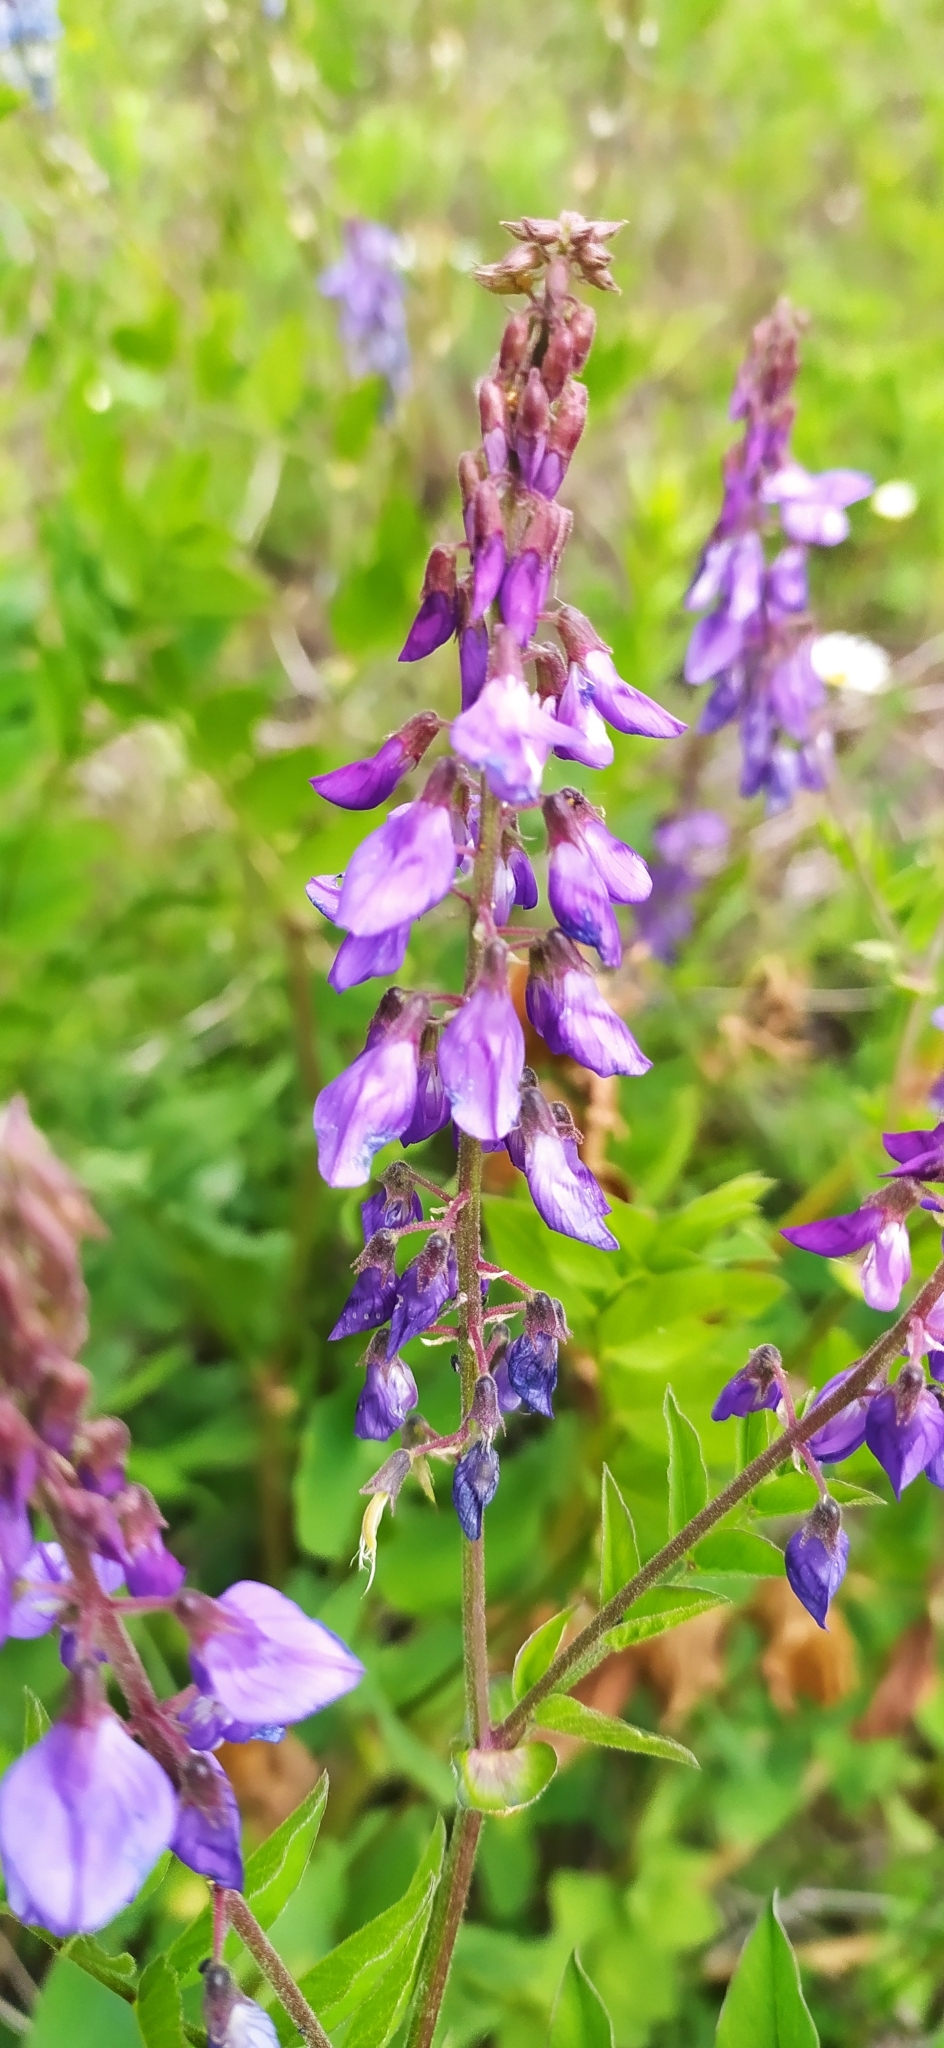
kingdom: Plantae
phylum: Tracheophyta
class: Magnoliopsida
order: Fabales
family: Fabaceae
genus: Galega
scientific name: Galega orientalis
